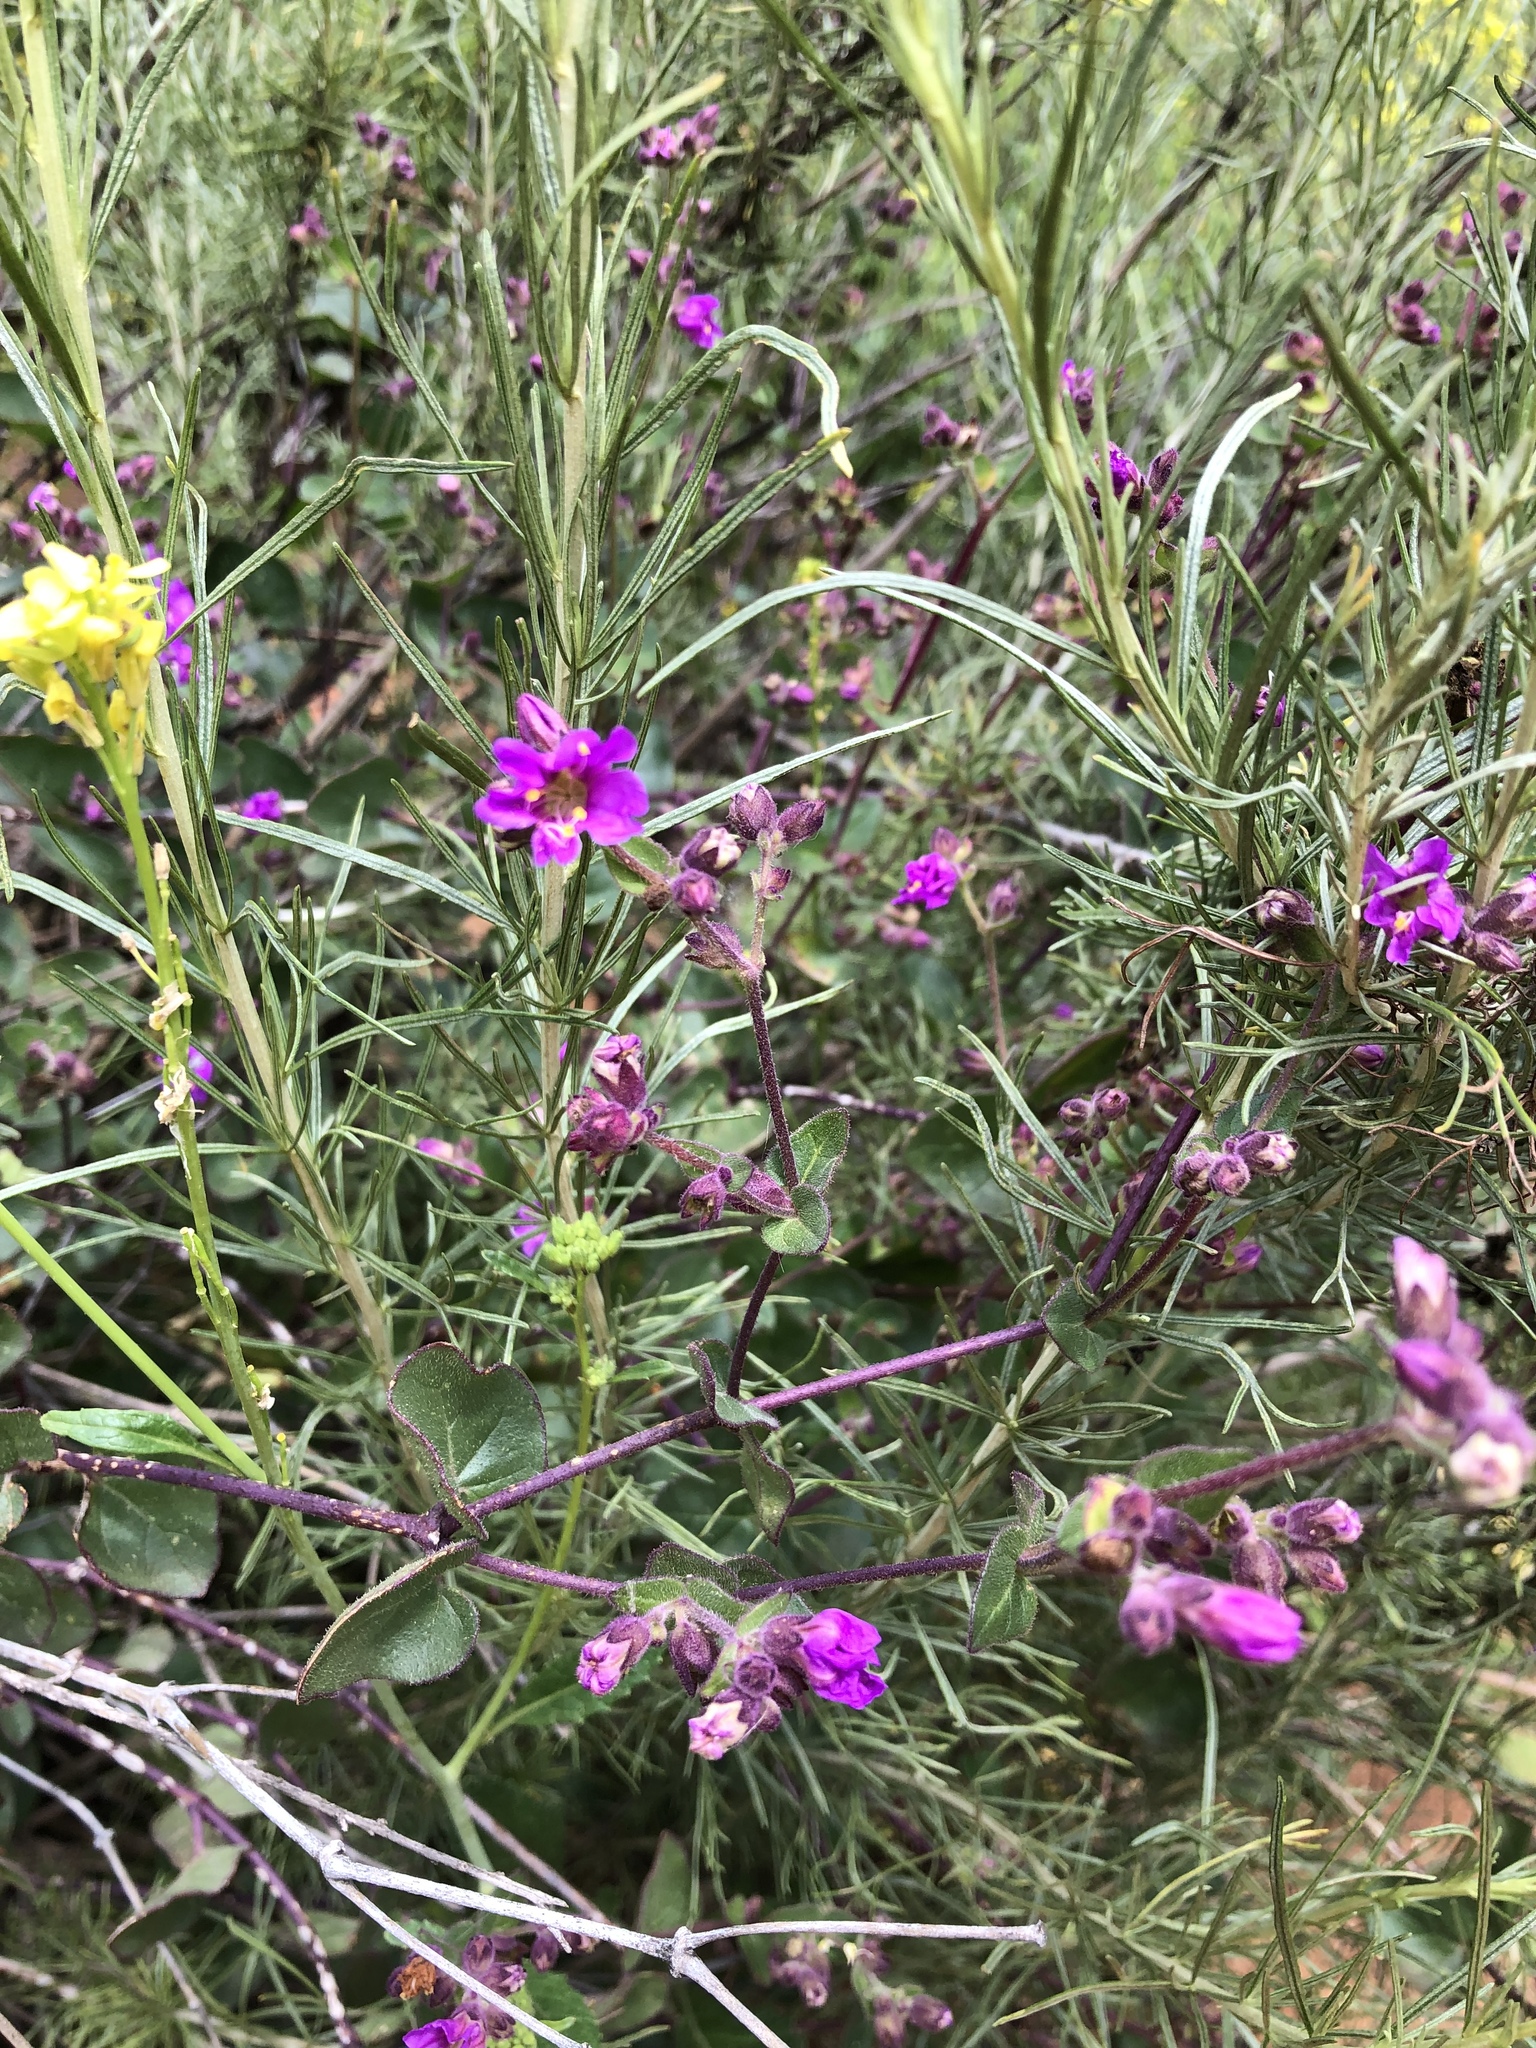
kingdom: Plantae
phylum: Tracheophyta
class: Magnoliopsida
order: Caryophyllales
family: Nyctaginaceae
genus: Mirabilis
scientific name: Mirabilis laevis
